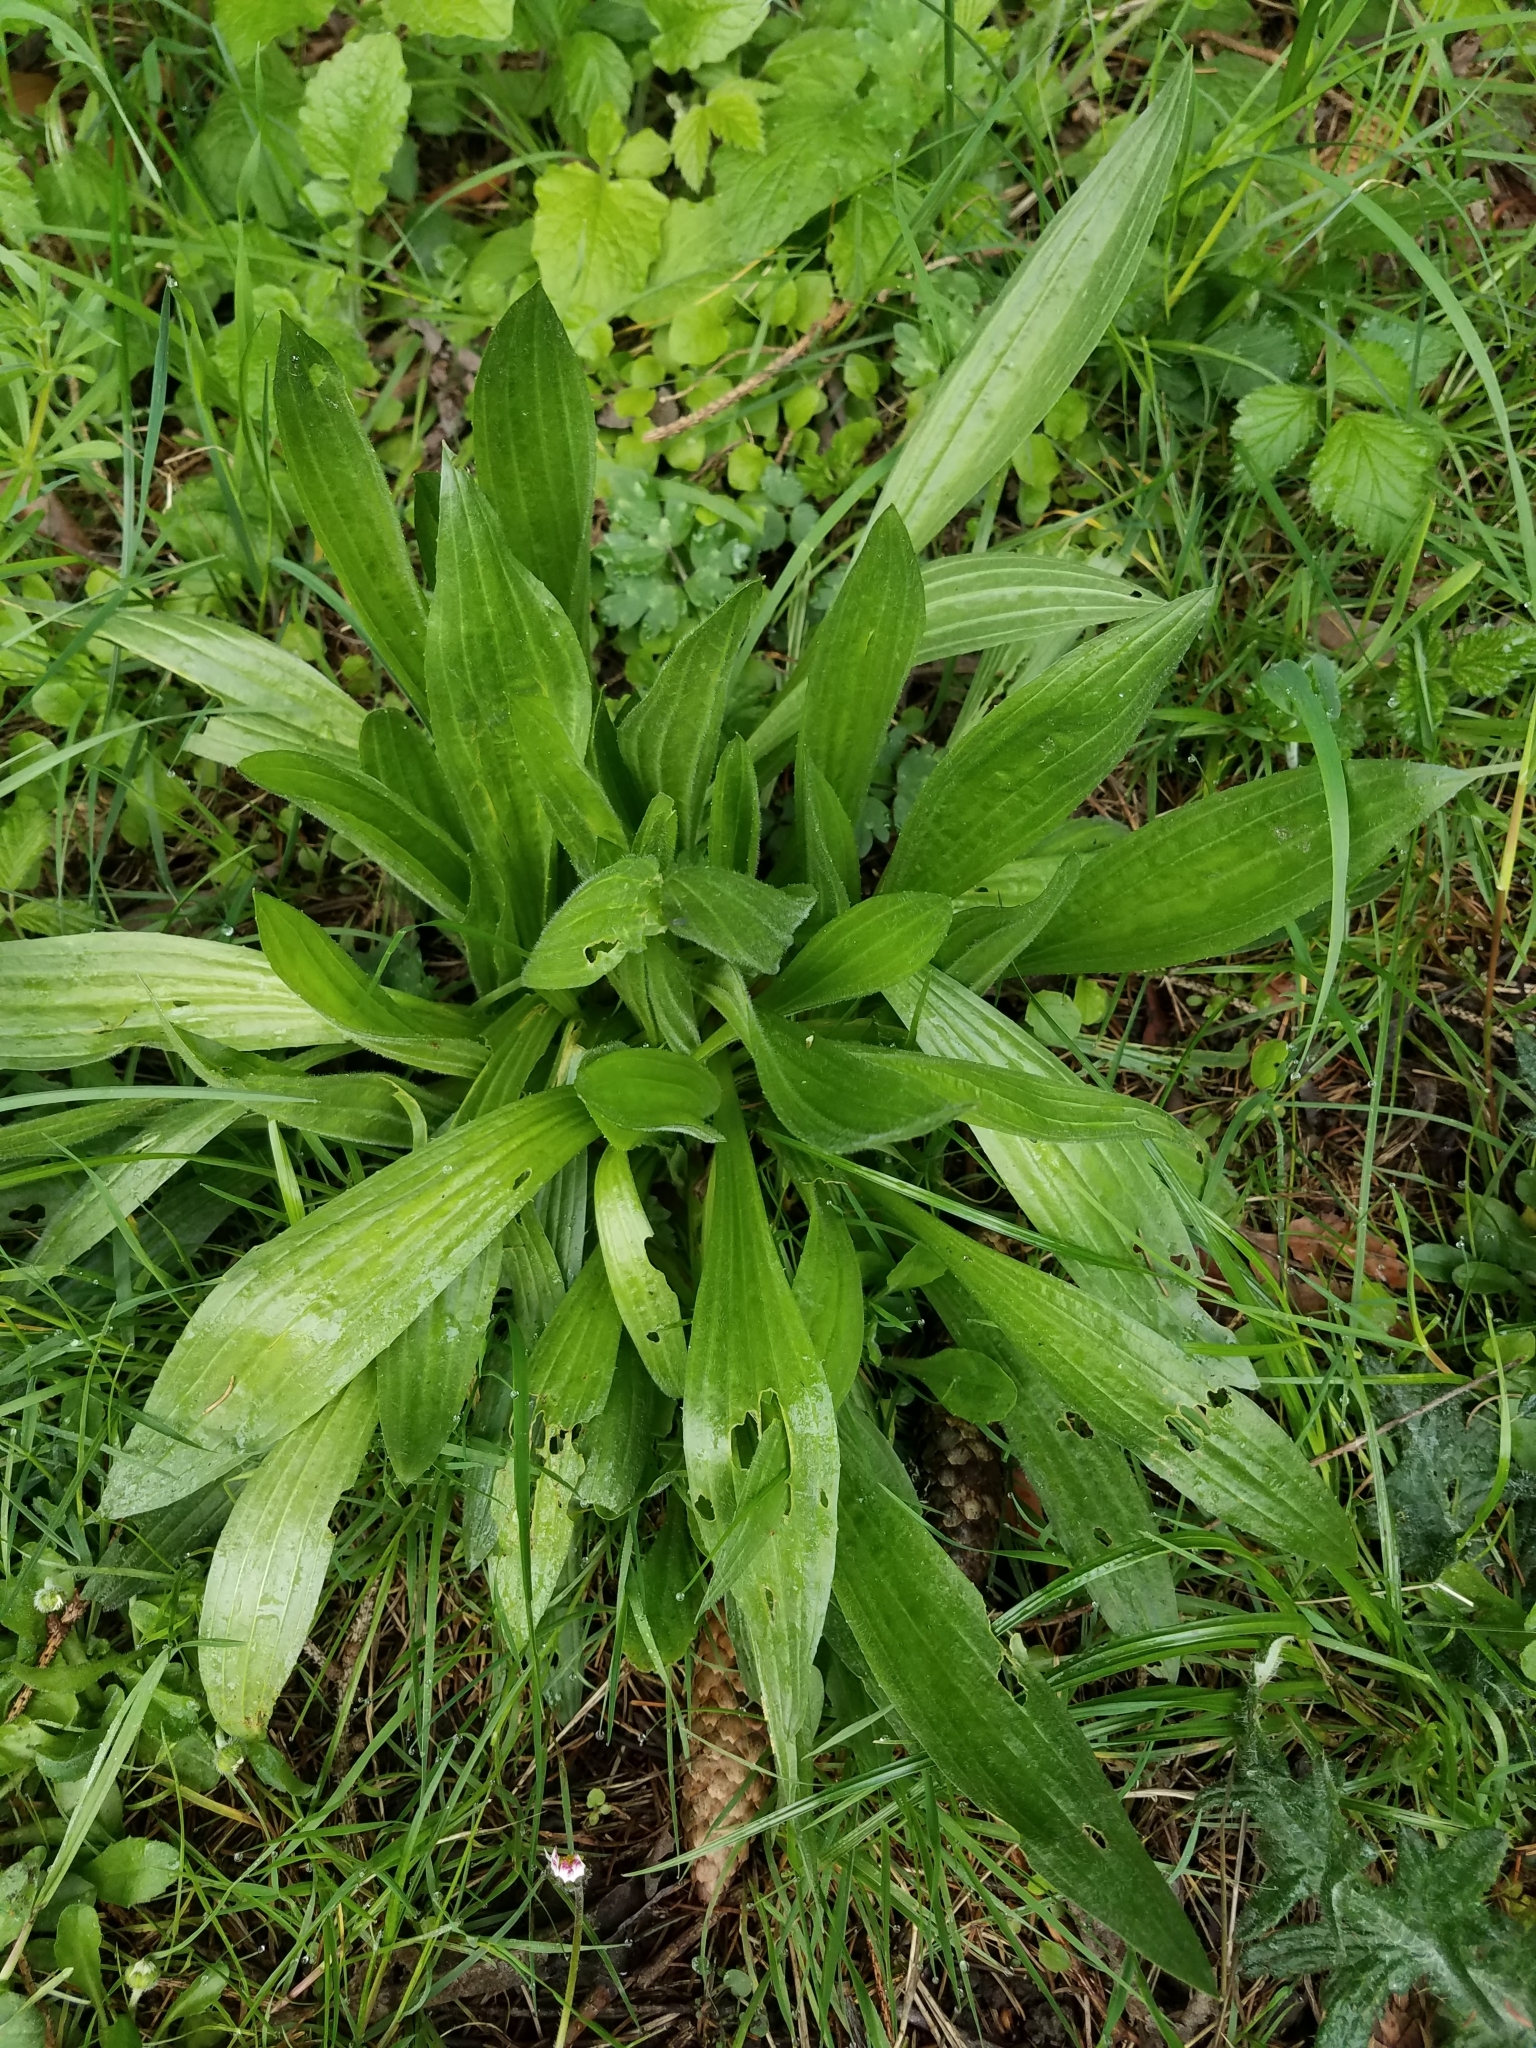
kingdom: Plantae
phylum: Tracheophyta
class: Magnoliopsida
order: Lamiales
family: Plantaginaceae
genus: Plantago
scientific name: Plantago lanceolata
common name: Ribwort plantain
